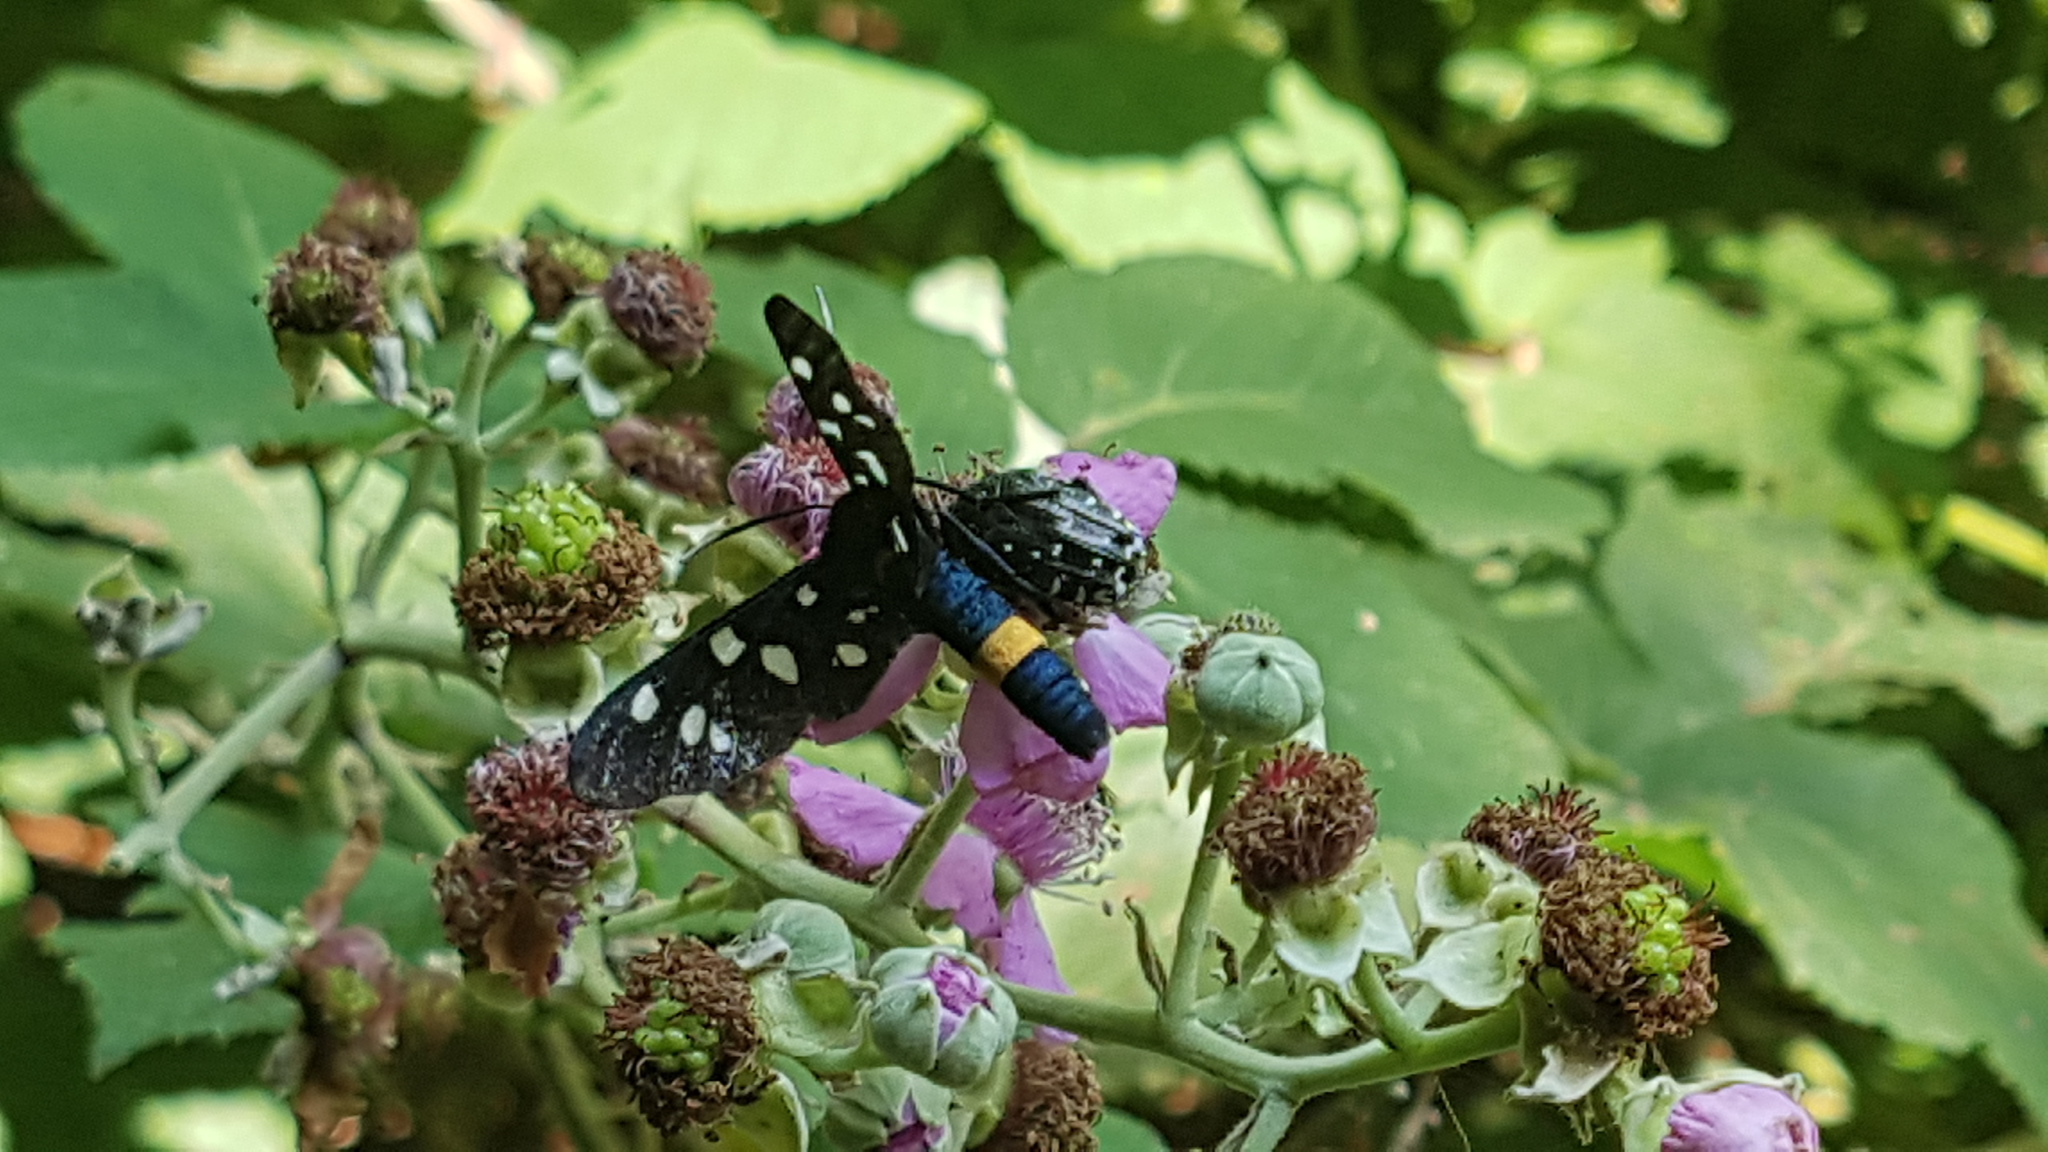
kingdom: Animalia
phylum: Arthropoda
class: Insecta
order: Lepidoptera
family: Erebidae
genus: Amata
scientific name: Amata phegea
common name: Nine-spotted
